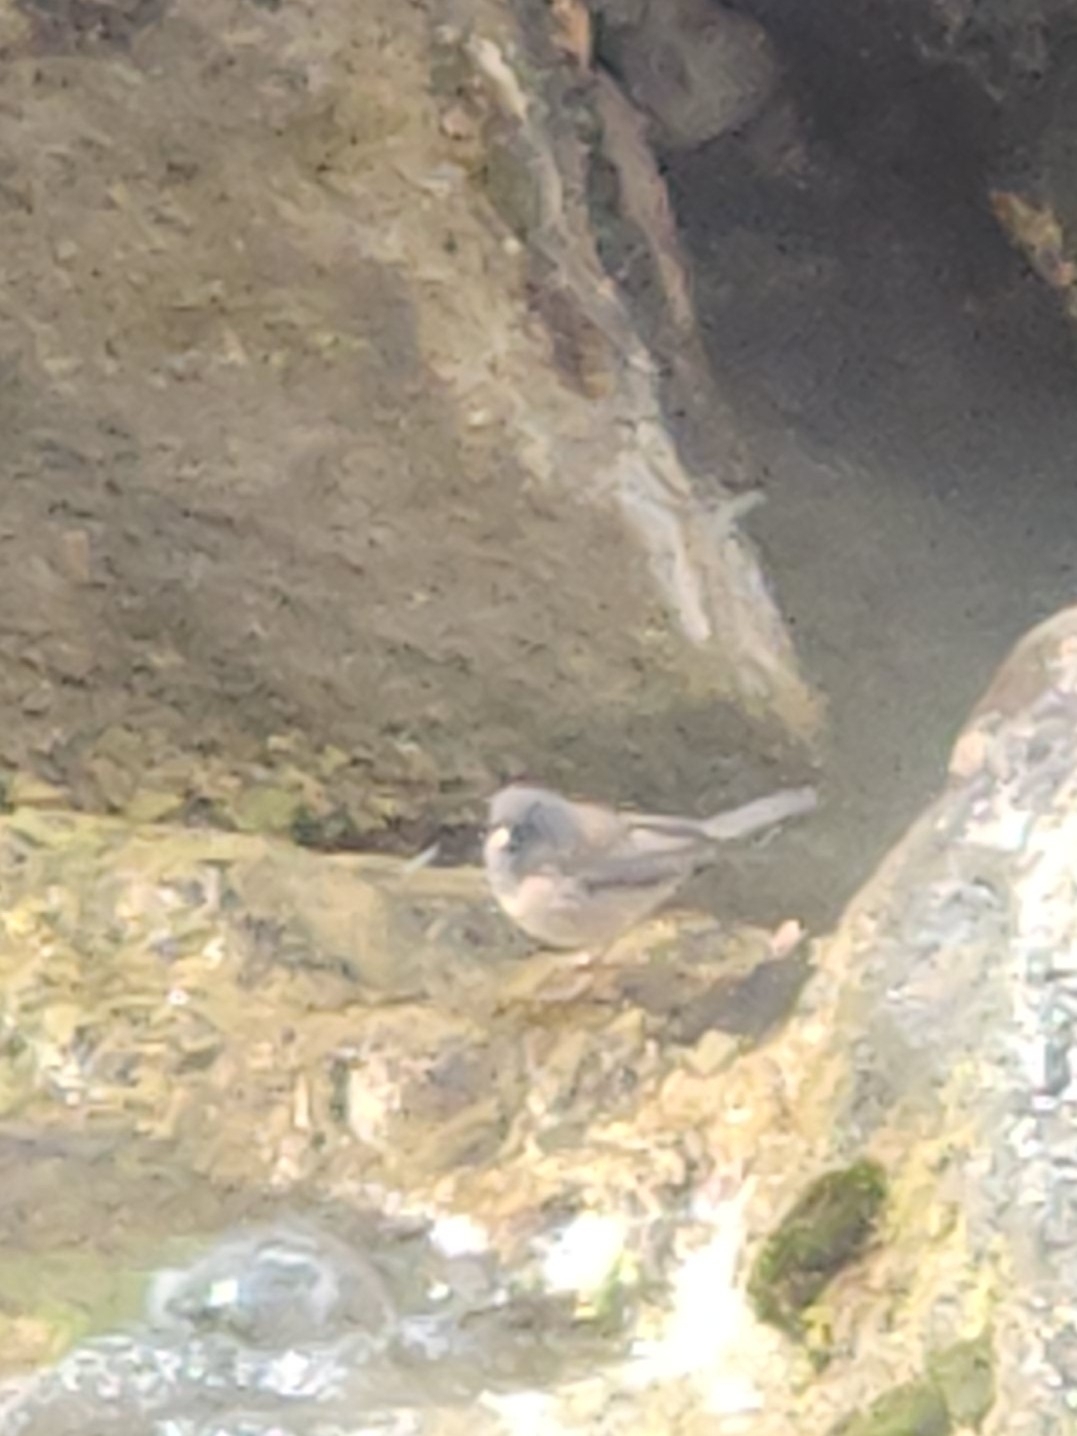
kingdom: Animalia
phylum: Chordata
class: Aves
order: Passeriformes
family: Passerellidae
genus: Junco
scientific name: Junco hyemalis
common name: Dark-eyed junco
